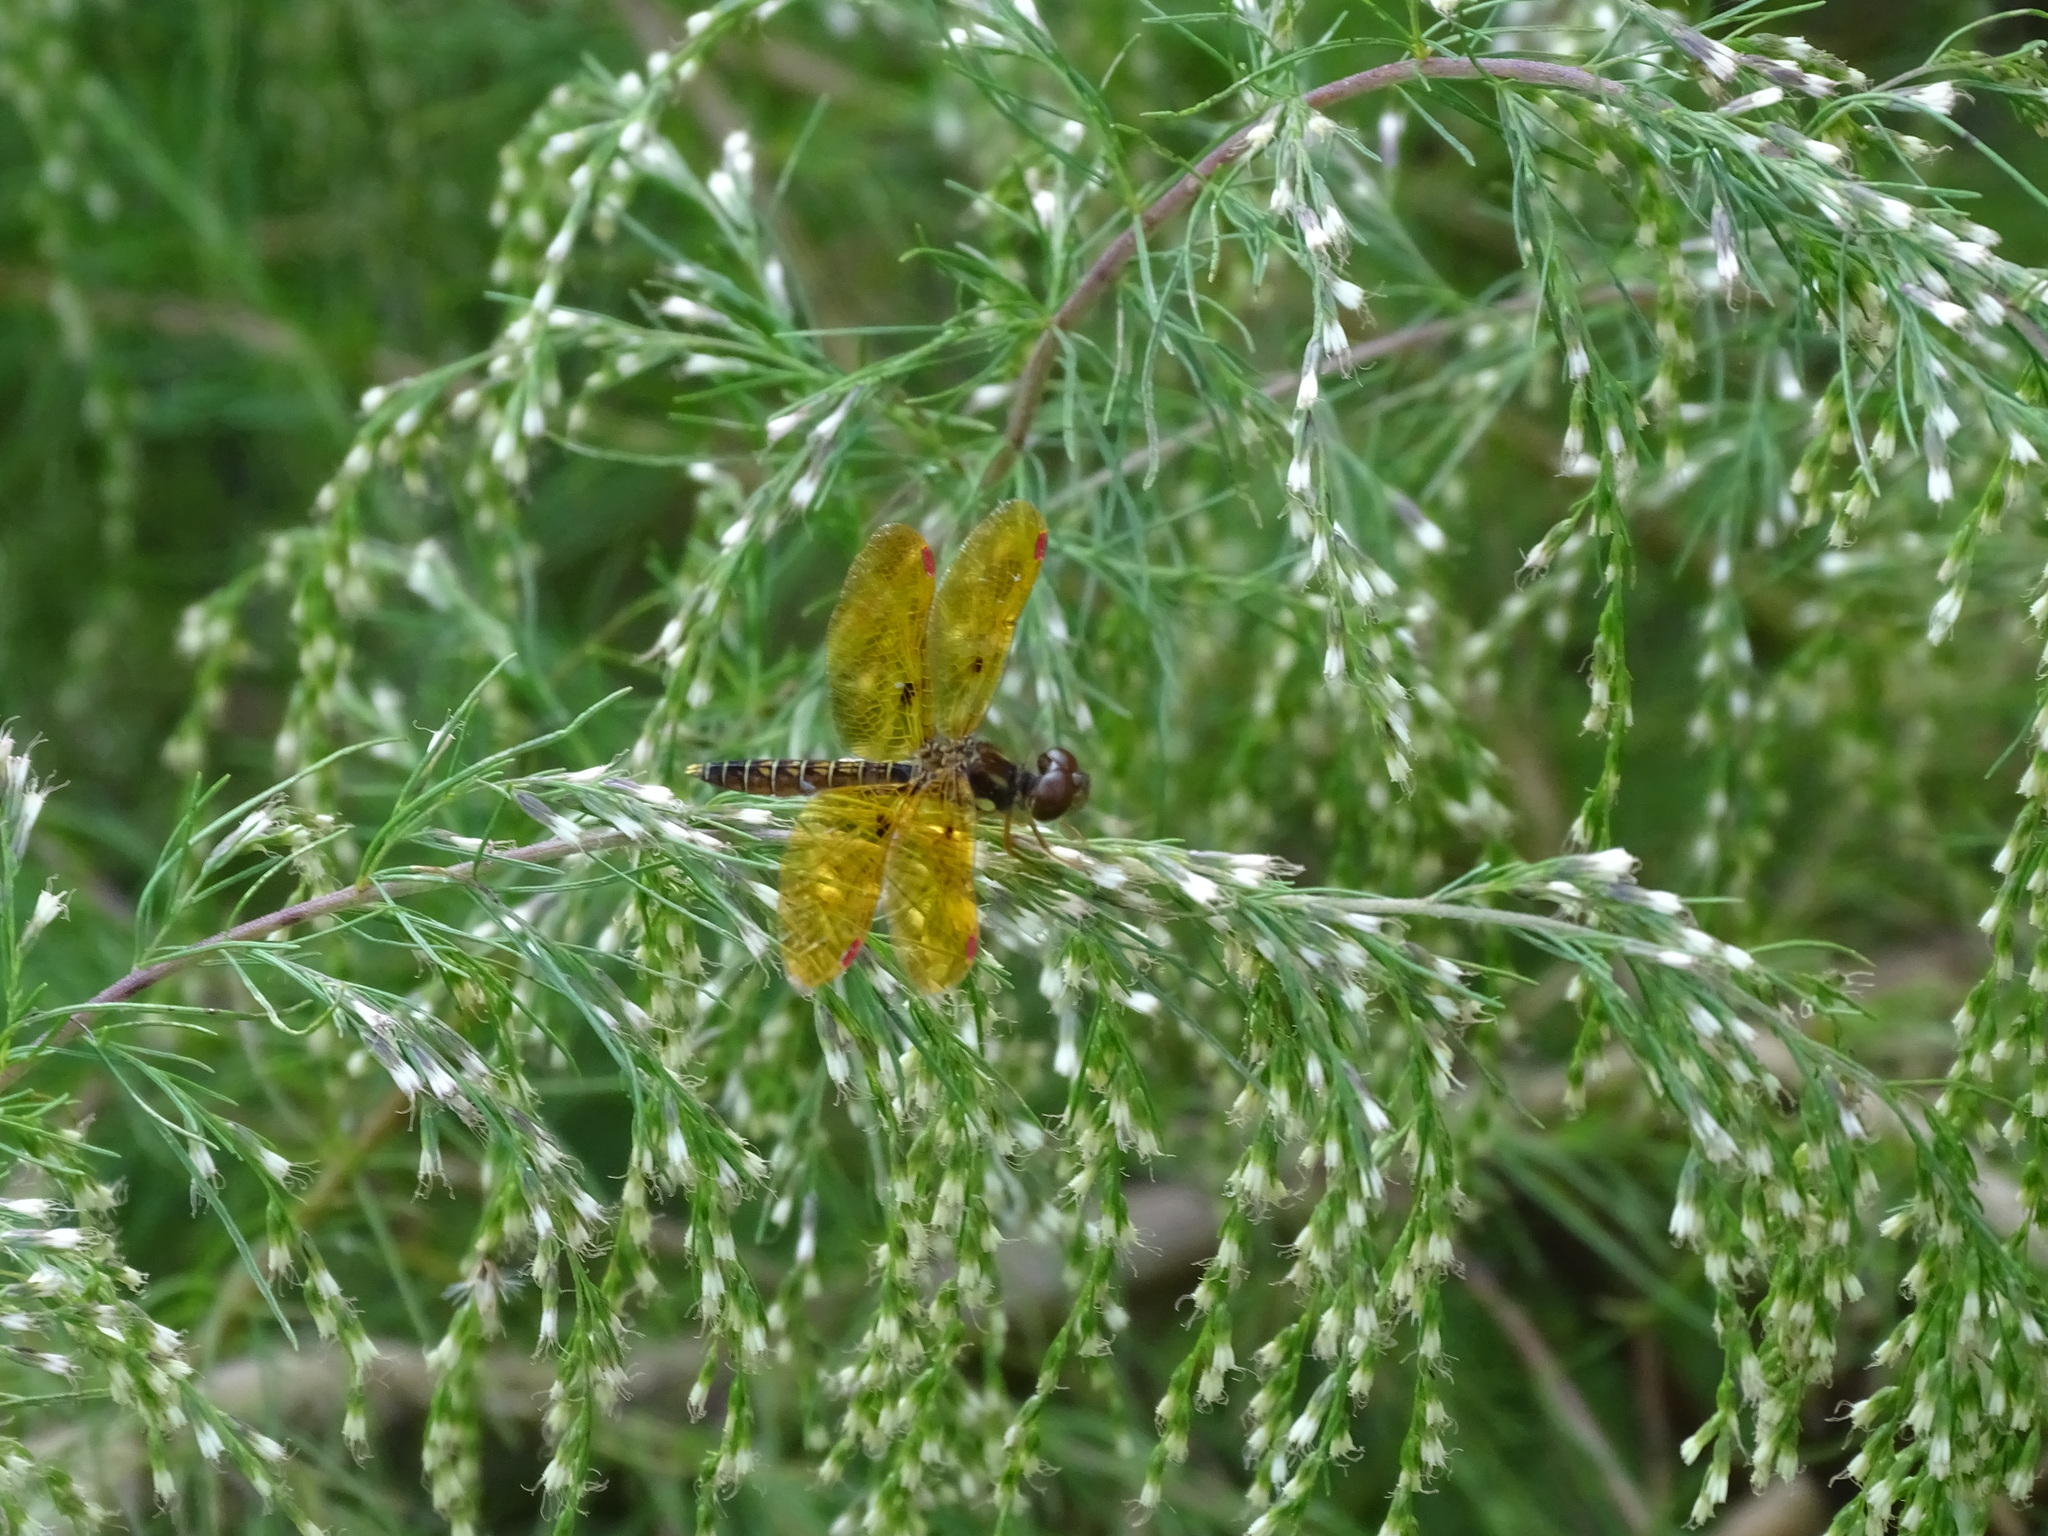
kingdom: Animalia
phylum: Arthropoda
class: Insecta
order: Odonata
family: Libellulidae
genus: Perithemis
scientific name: Perithemis tenera
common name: Eastern amberwing
